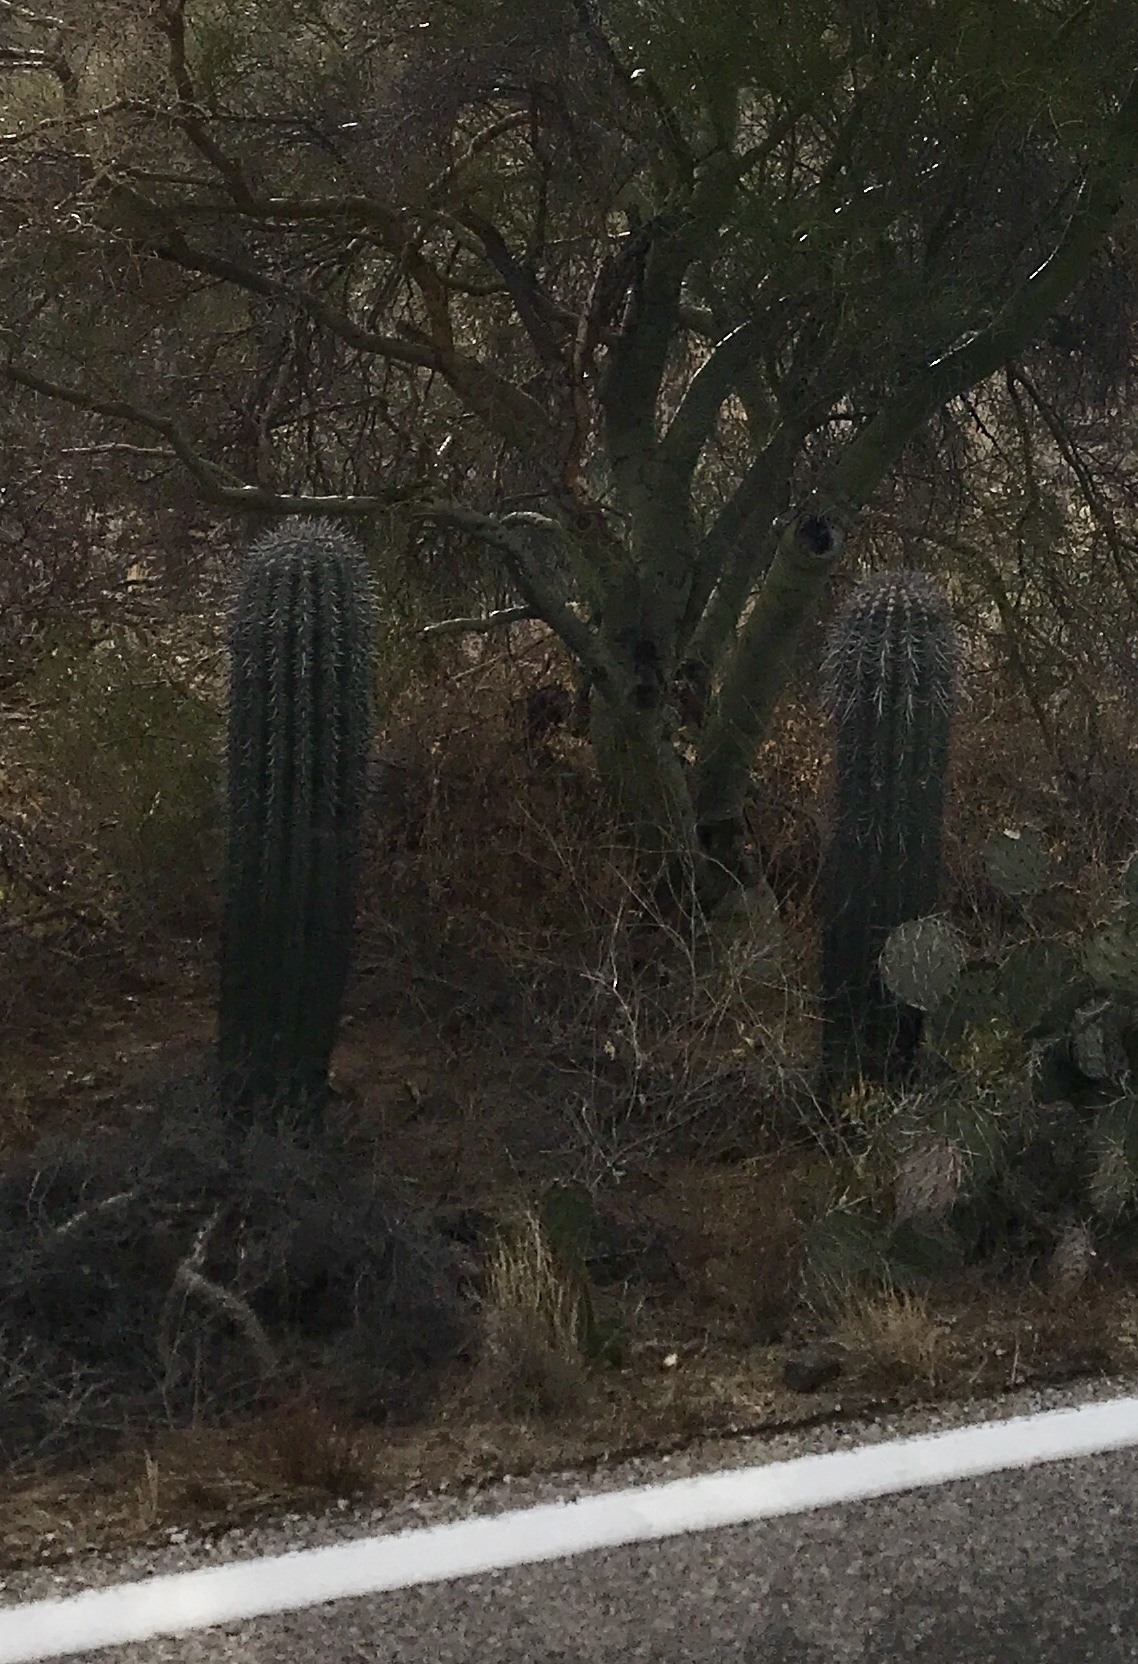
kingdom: Plantae
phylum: Tracheophyta
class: Magnoliopsida
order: Caryophyllales
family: Cactaceae
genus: Carnegiea
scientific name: Carnegiea gigantea
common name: Saguaro
